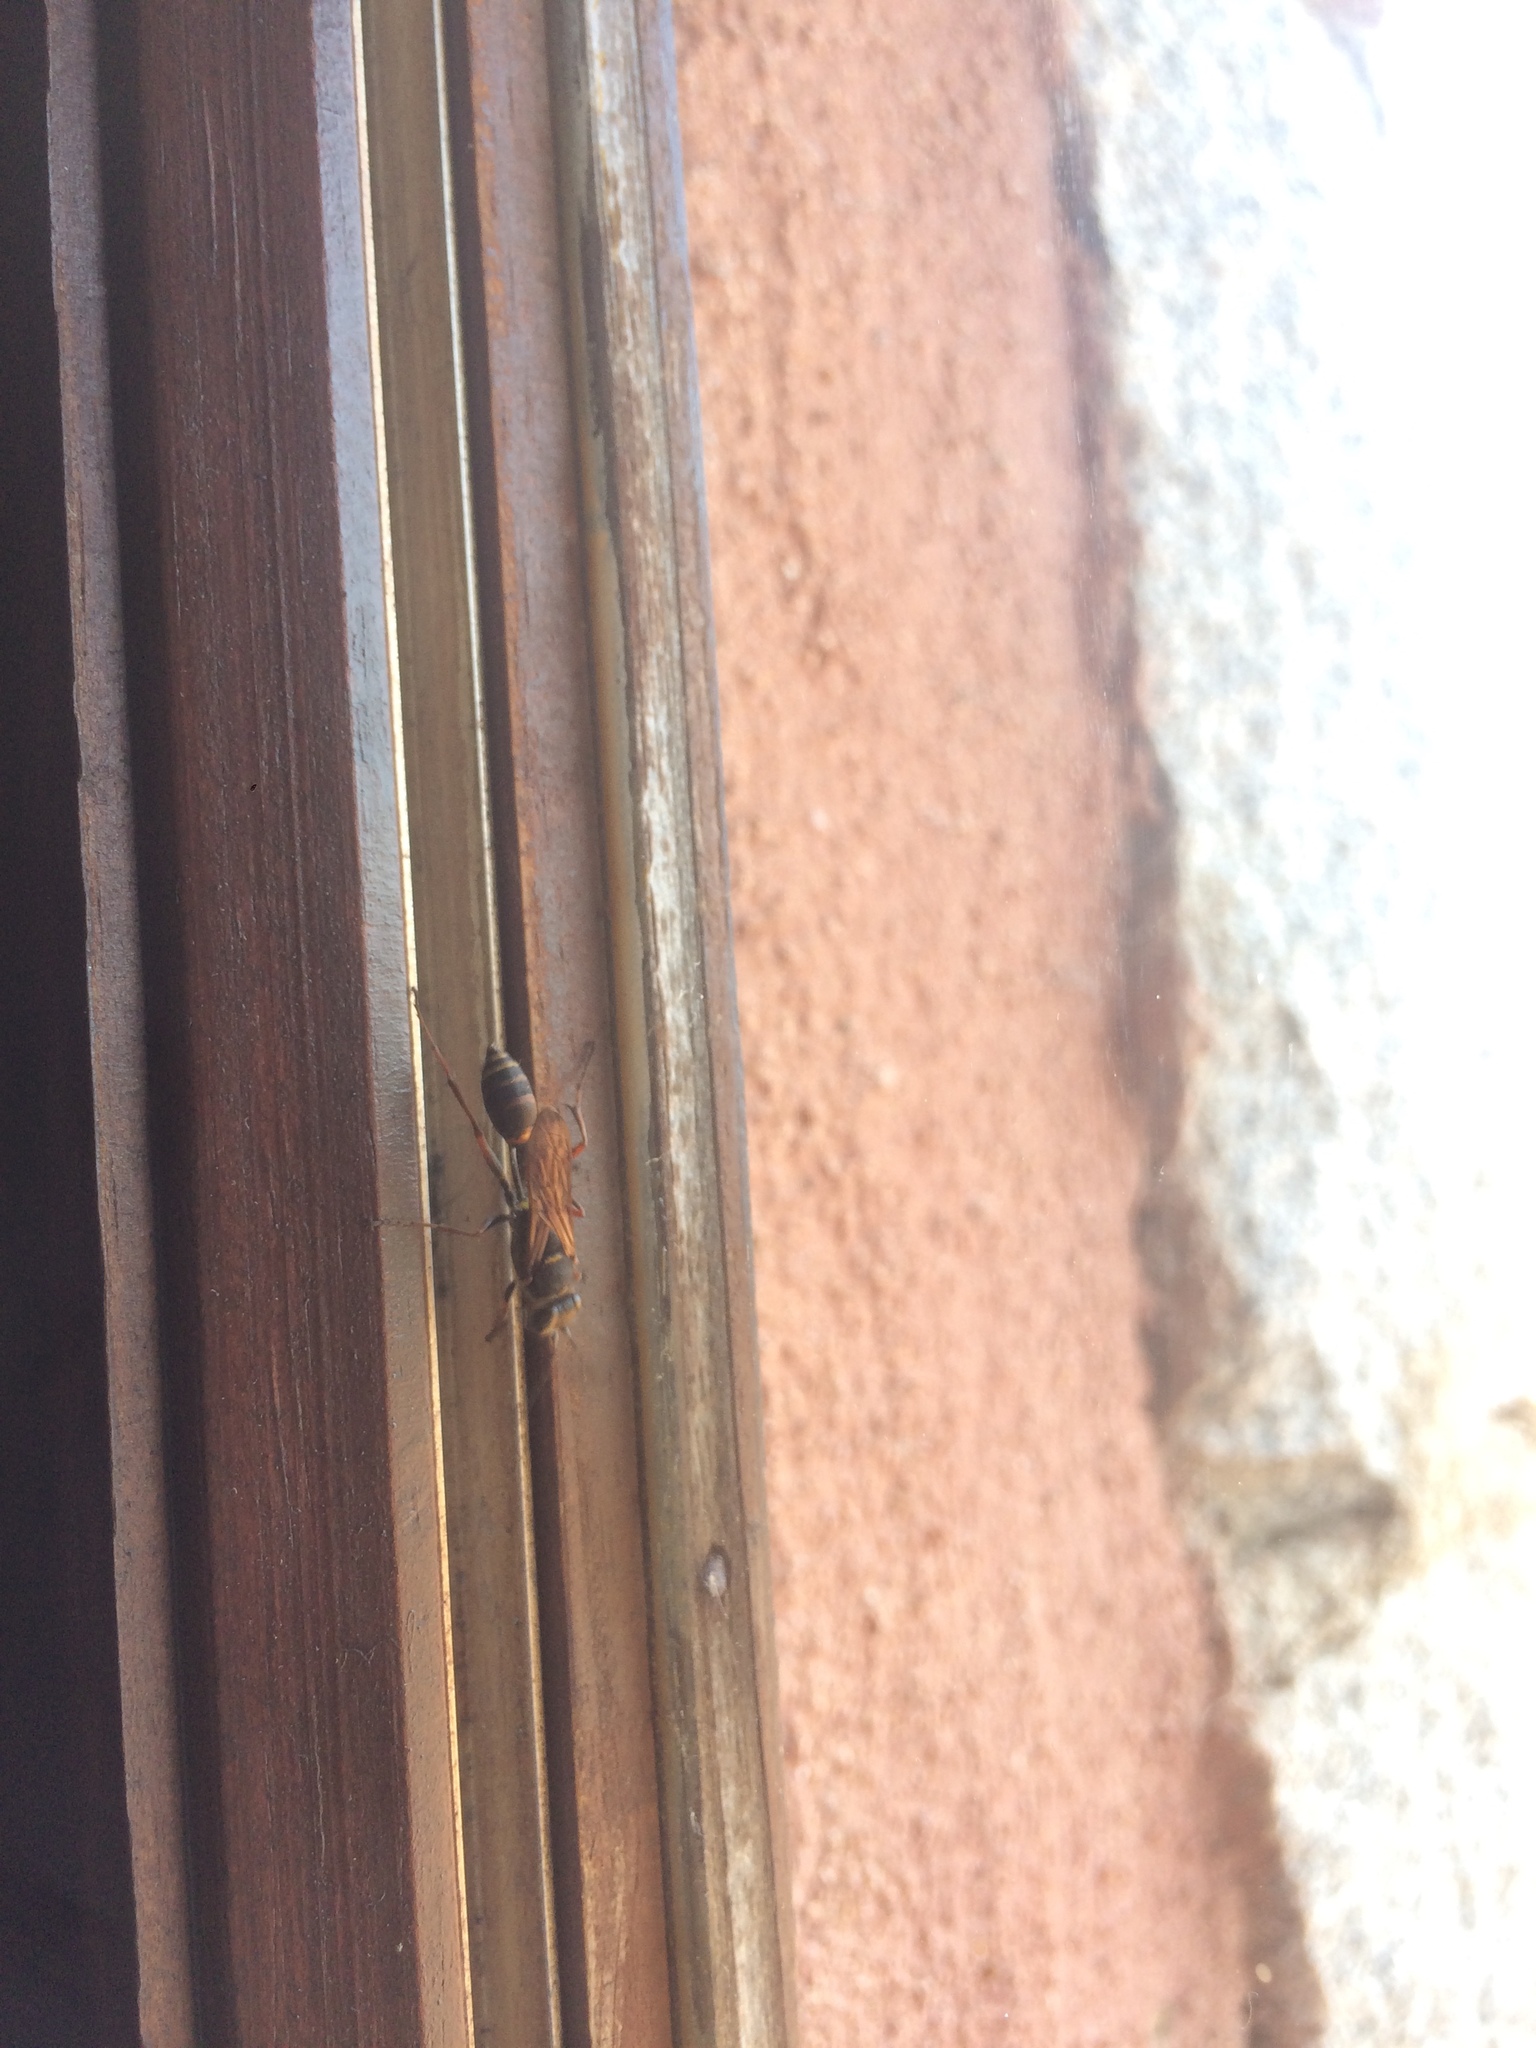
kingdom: Animalia
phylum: Arthropoda
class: Insecta
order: Hymenoptera
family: Sphecidae
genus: Sceliphron
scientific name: Sceliphron curvatum
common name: Pèlopèe
